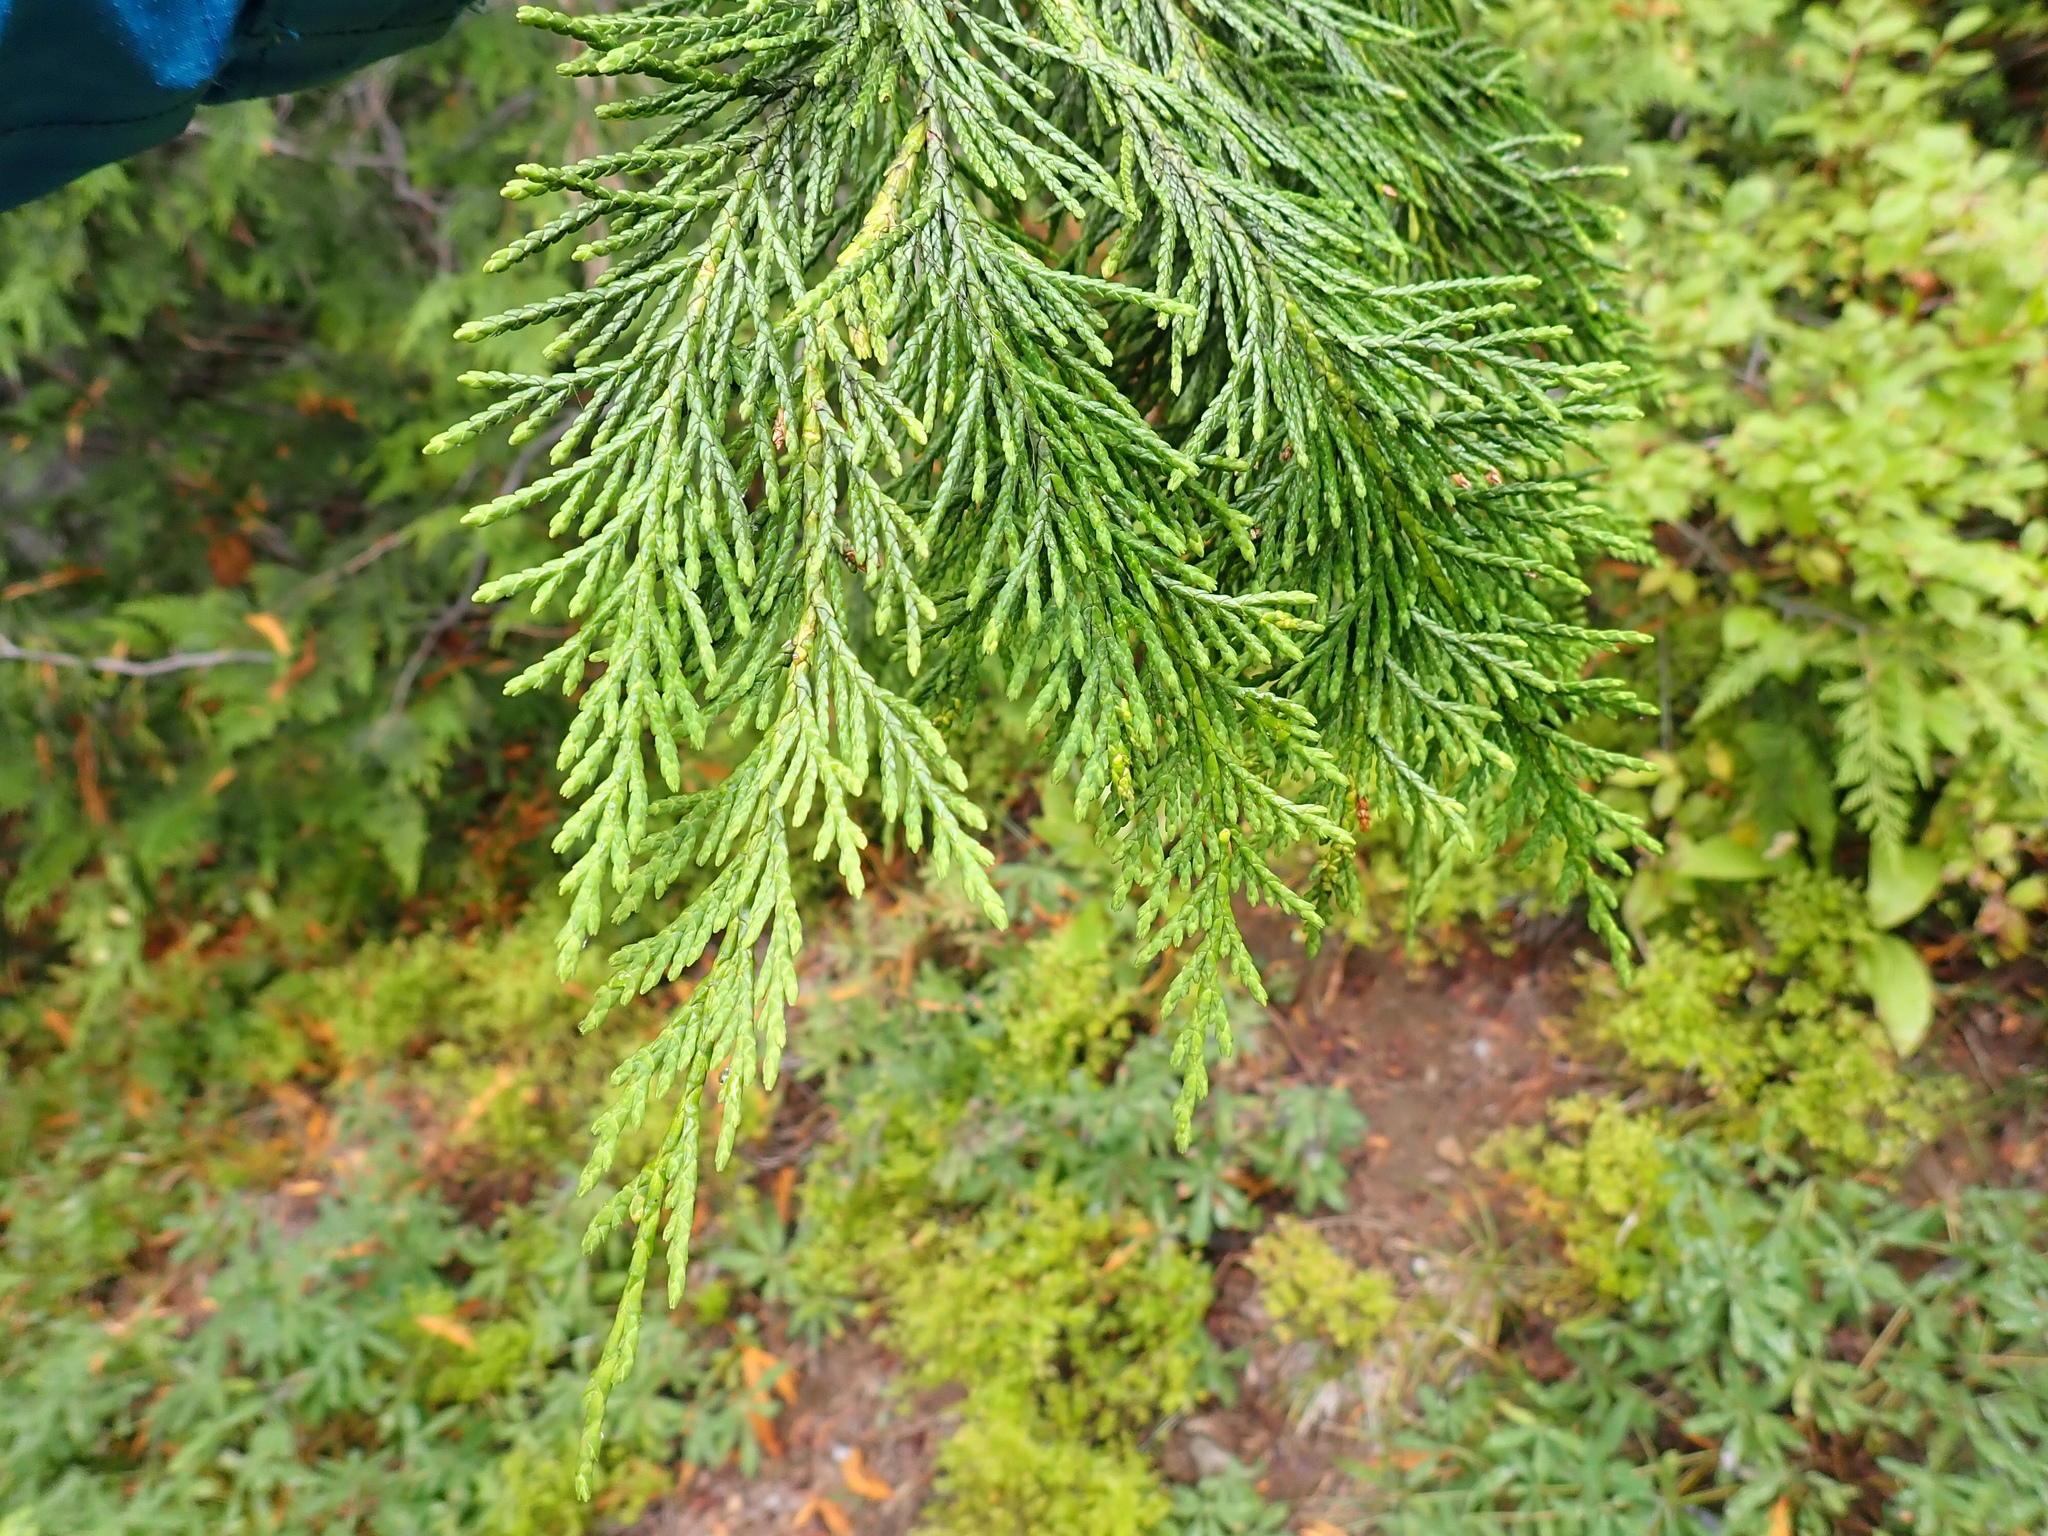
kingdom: Plantae
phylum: Tracheophyta
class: Pinopsida
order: Pinales
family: Cupressaceae
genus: Xanthocyparis
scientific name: Xanthocyparis nootkatensis
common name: Nootka cypress
